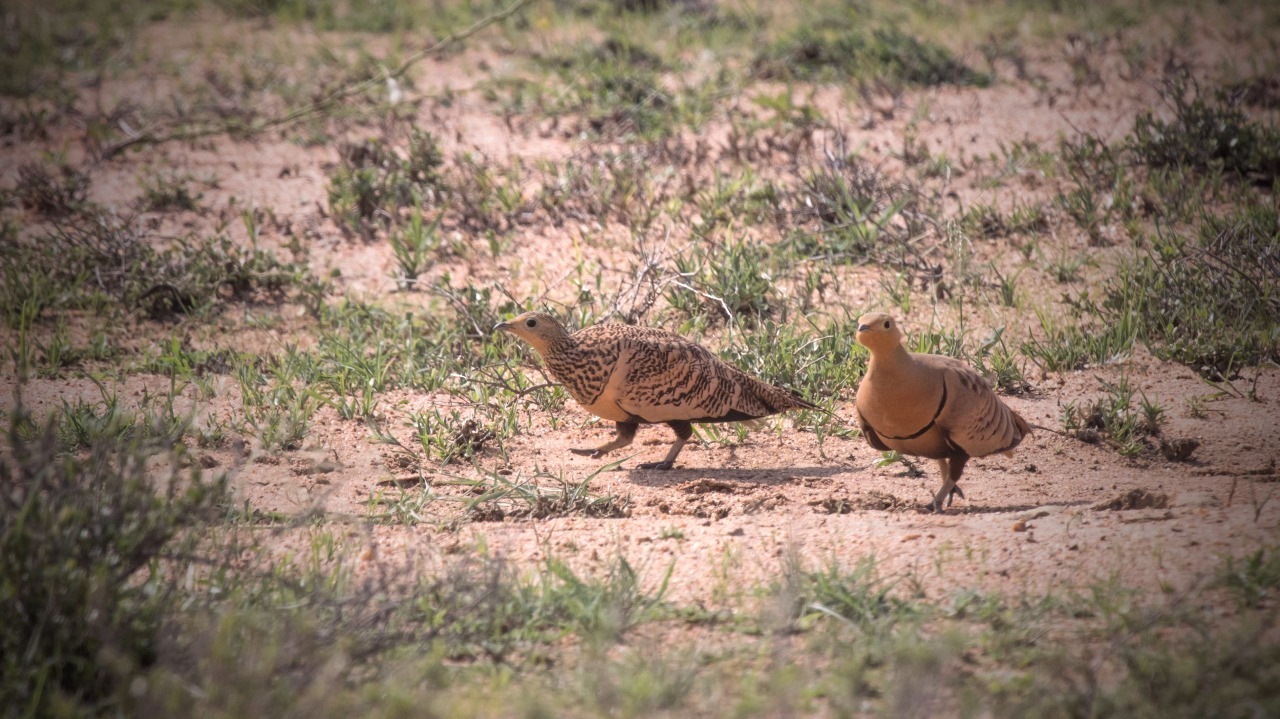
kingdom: Animalia
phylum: Chordata
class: Aves
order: Pteroclidiformes
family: Pteroclididae
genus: Pterocles
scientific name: Pterocles exustus
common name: Chestnut-bellied sandgrouse
